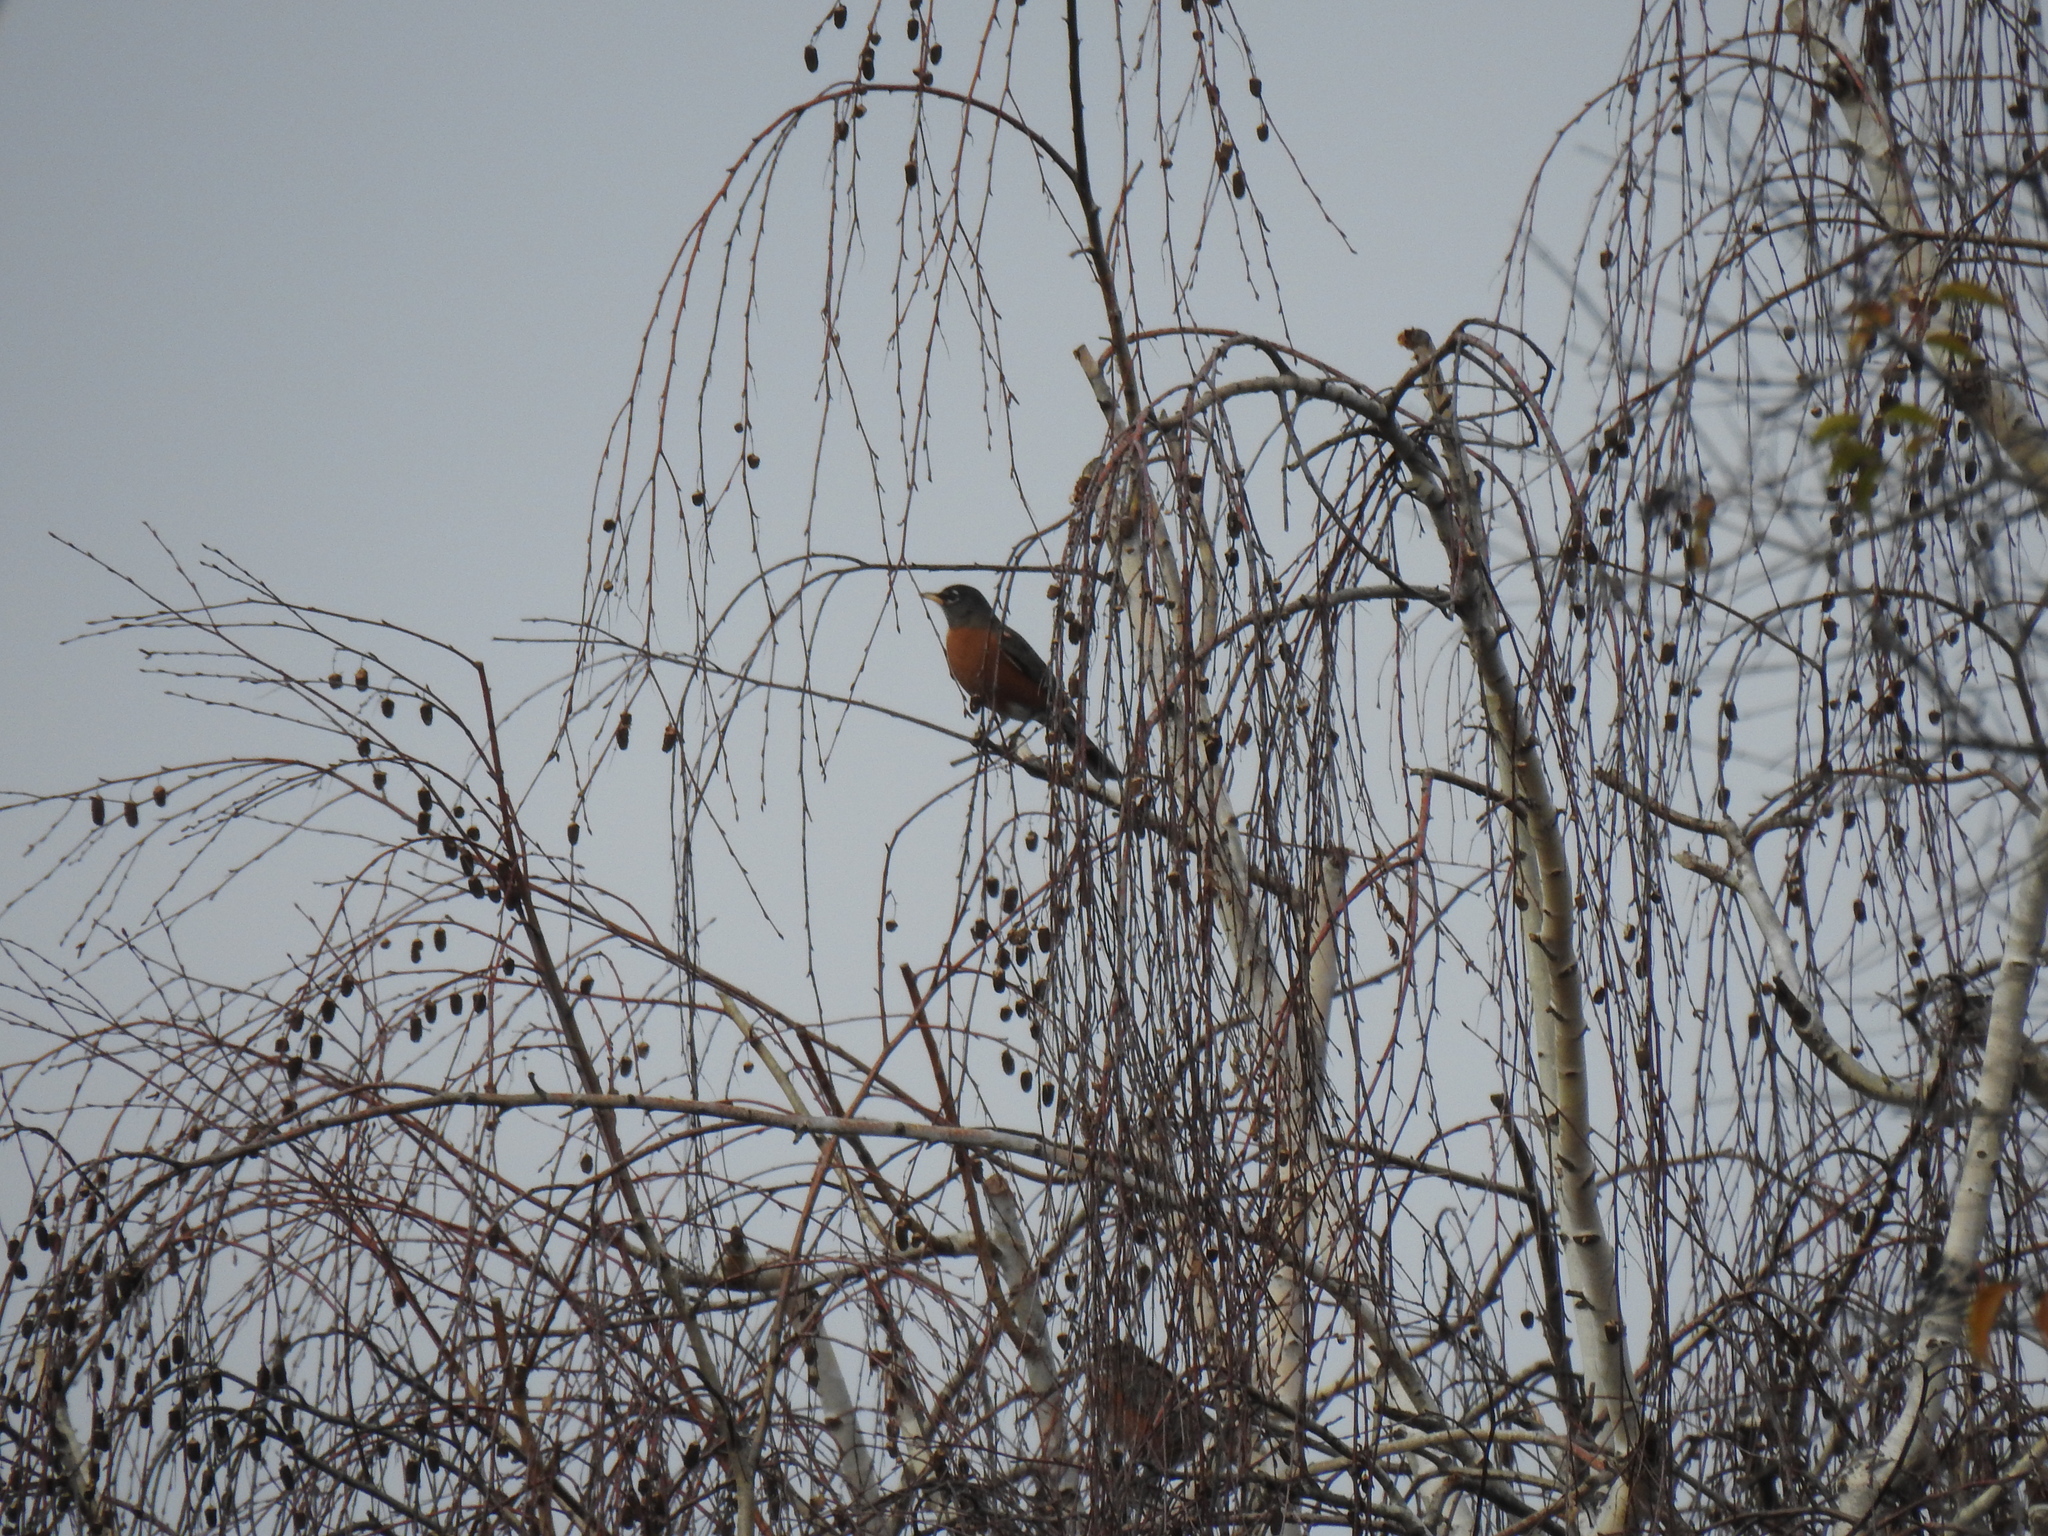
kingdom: Animalia
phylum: Chordata
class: Aves
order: Passeriformes
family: Turdidae
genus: Turdus
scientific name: Turdus migratorius
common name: American robin
